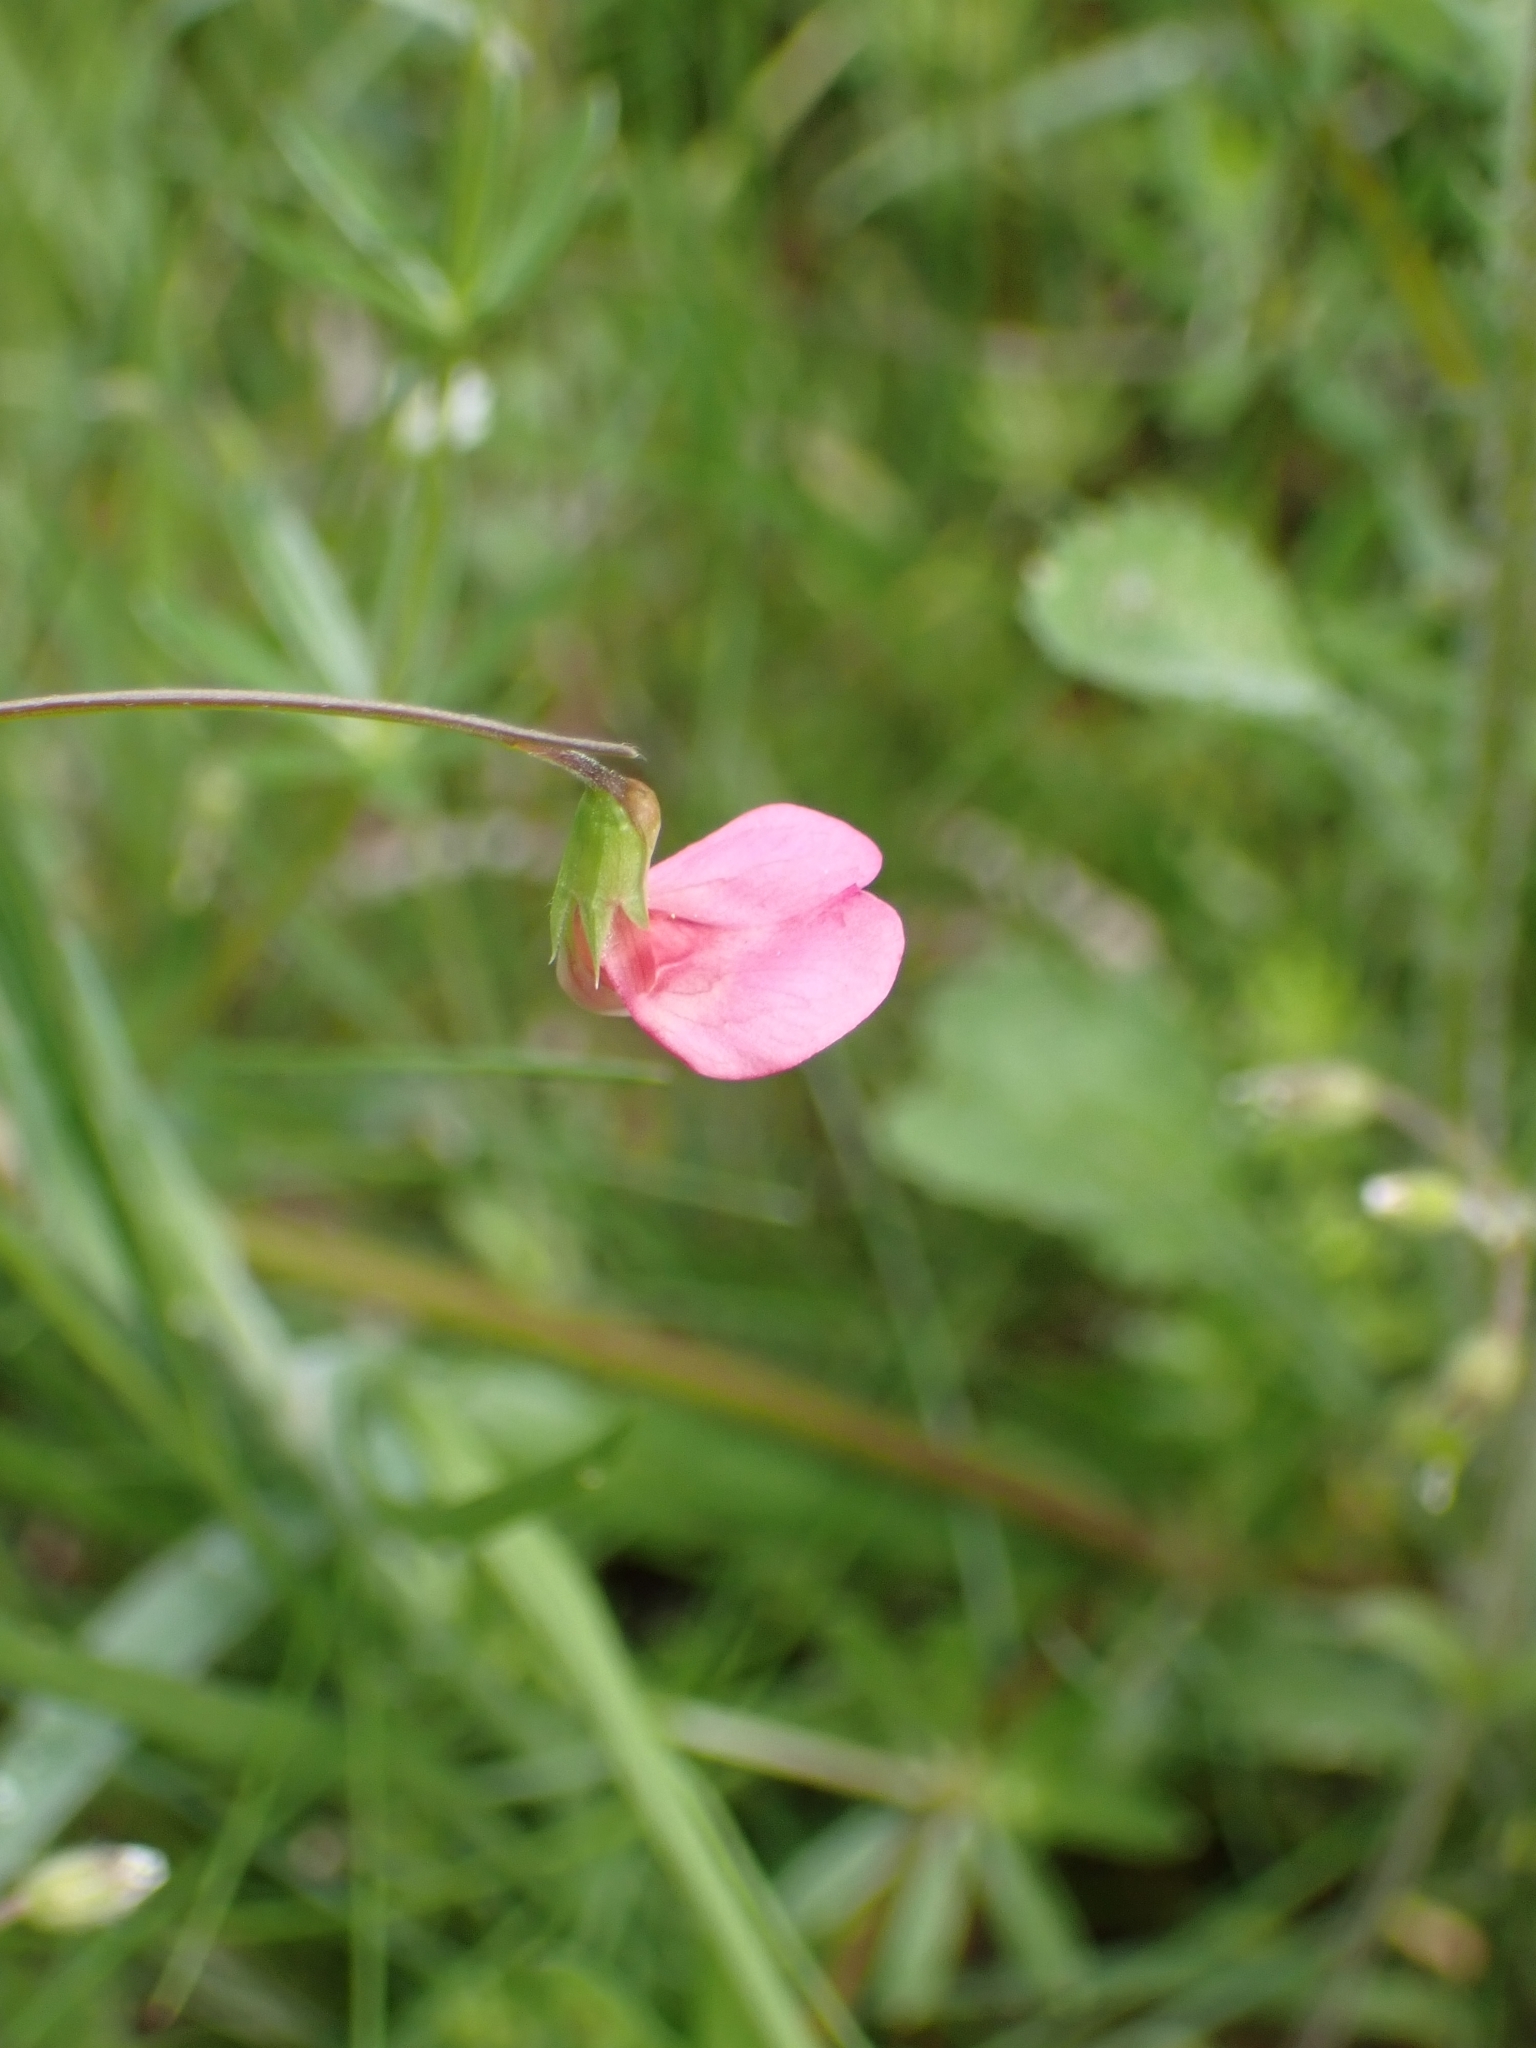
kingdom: Plantae
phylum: Tracheophyta
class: Magnoliopsida
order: Fabales
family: Fabaceae
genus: Lathyrus
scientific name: Lathyrus nissolia
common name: Grass vetchling
